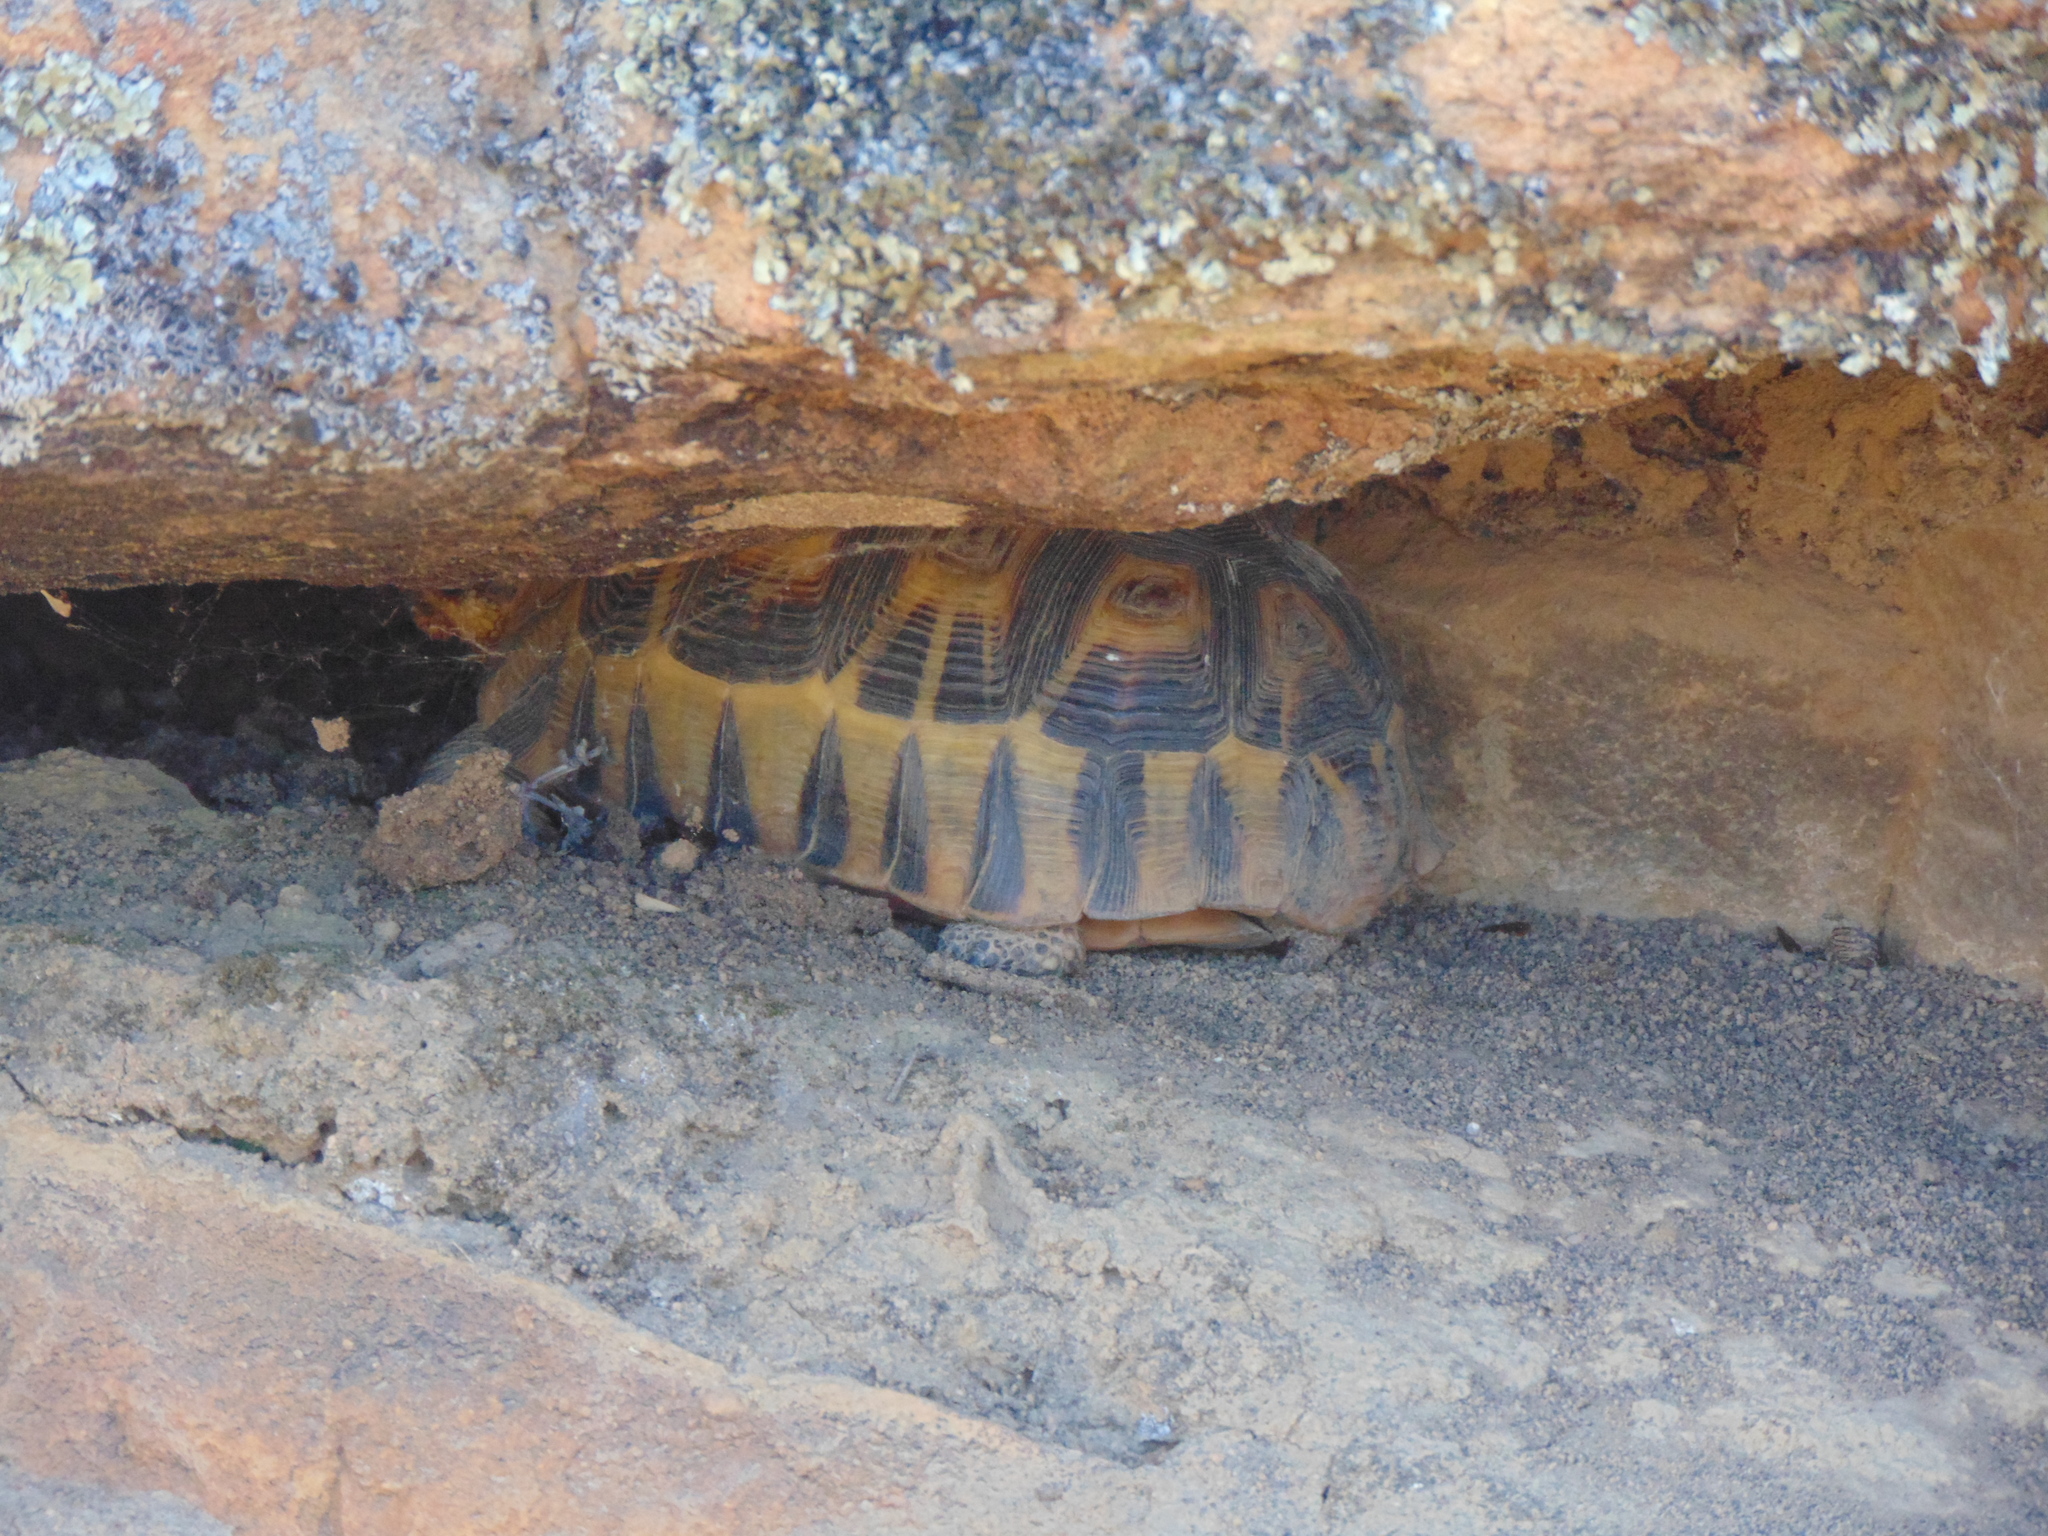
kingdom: Animalia
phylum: Chordata
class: Testudines
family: Testudinidae
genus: Chersina
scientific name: Chersina angulata
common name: South african bowsprit tortoise
